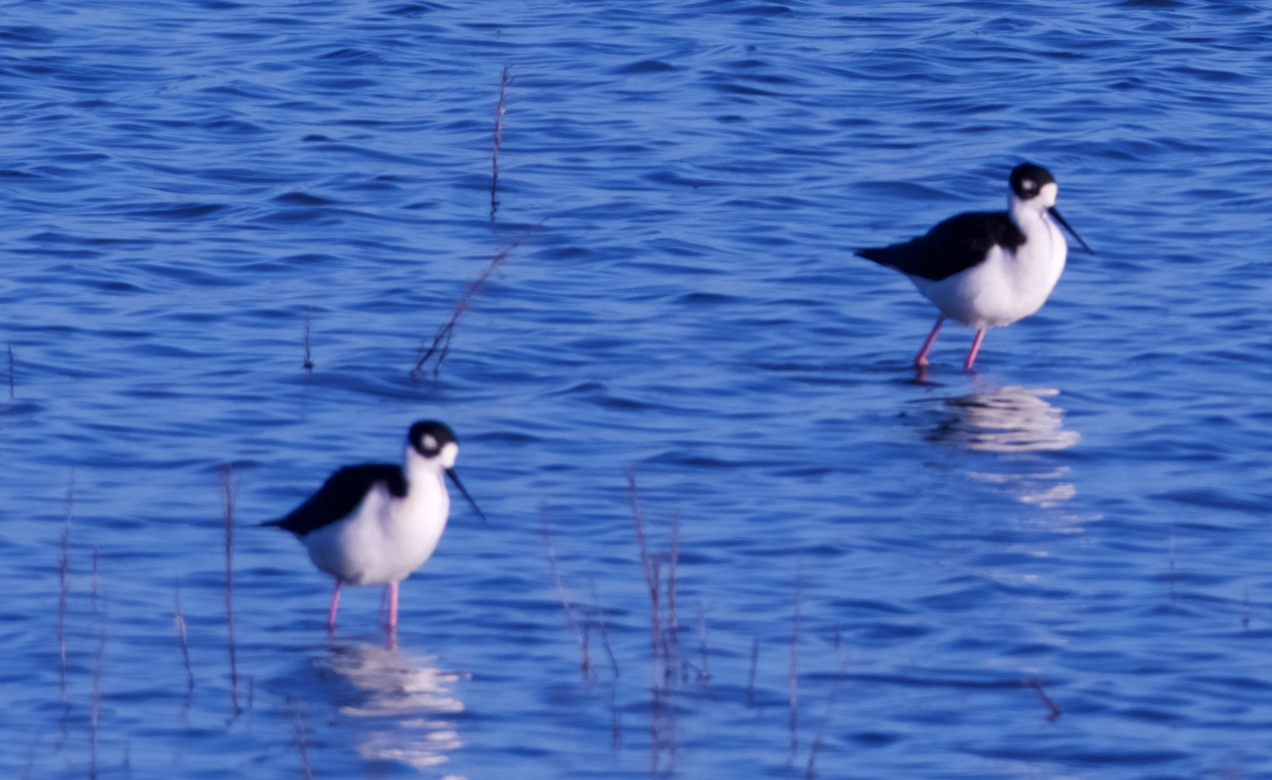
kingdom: Animalia
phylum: Chordata
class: Aves
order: Charadriiformes
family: Recurvirostridae
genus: Himantopus
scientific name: Himantopus mexicanus
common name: Black-necked stilt
